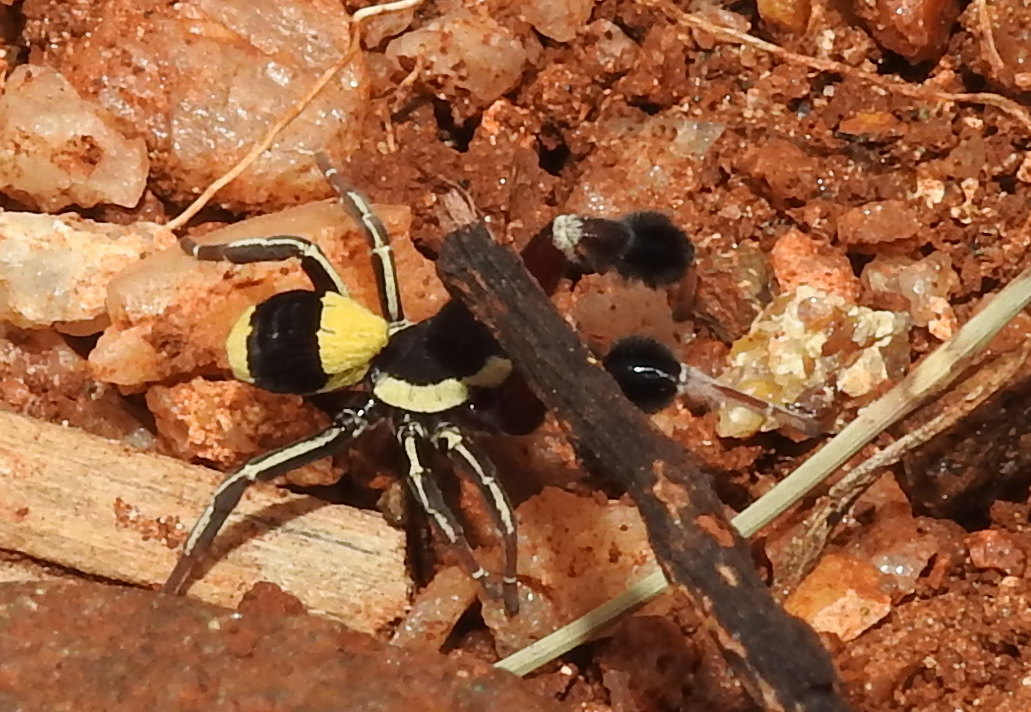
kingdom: Animalia
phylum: Arthropoda
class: Arachnida
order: Araneae
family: Eresidae
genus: Stegodyphus
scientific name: Stegodyphus tibialis
